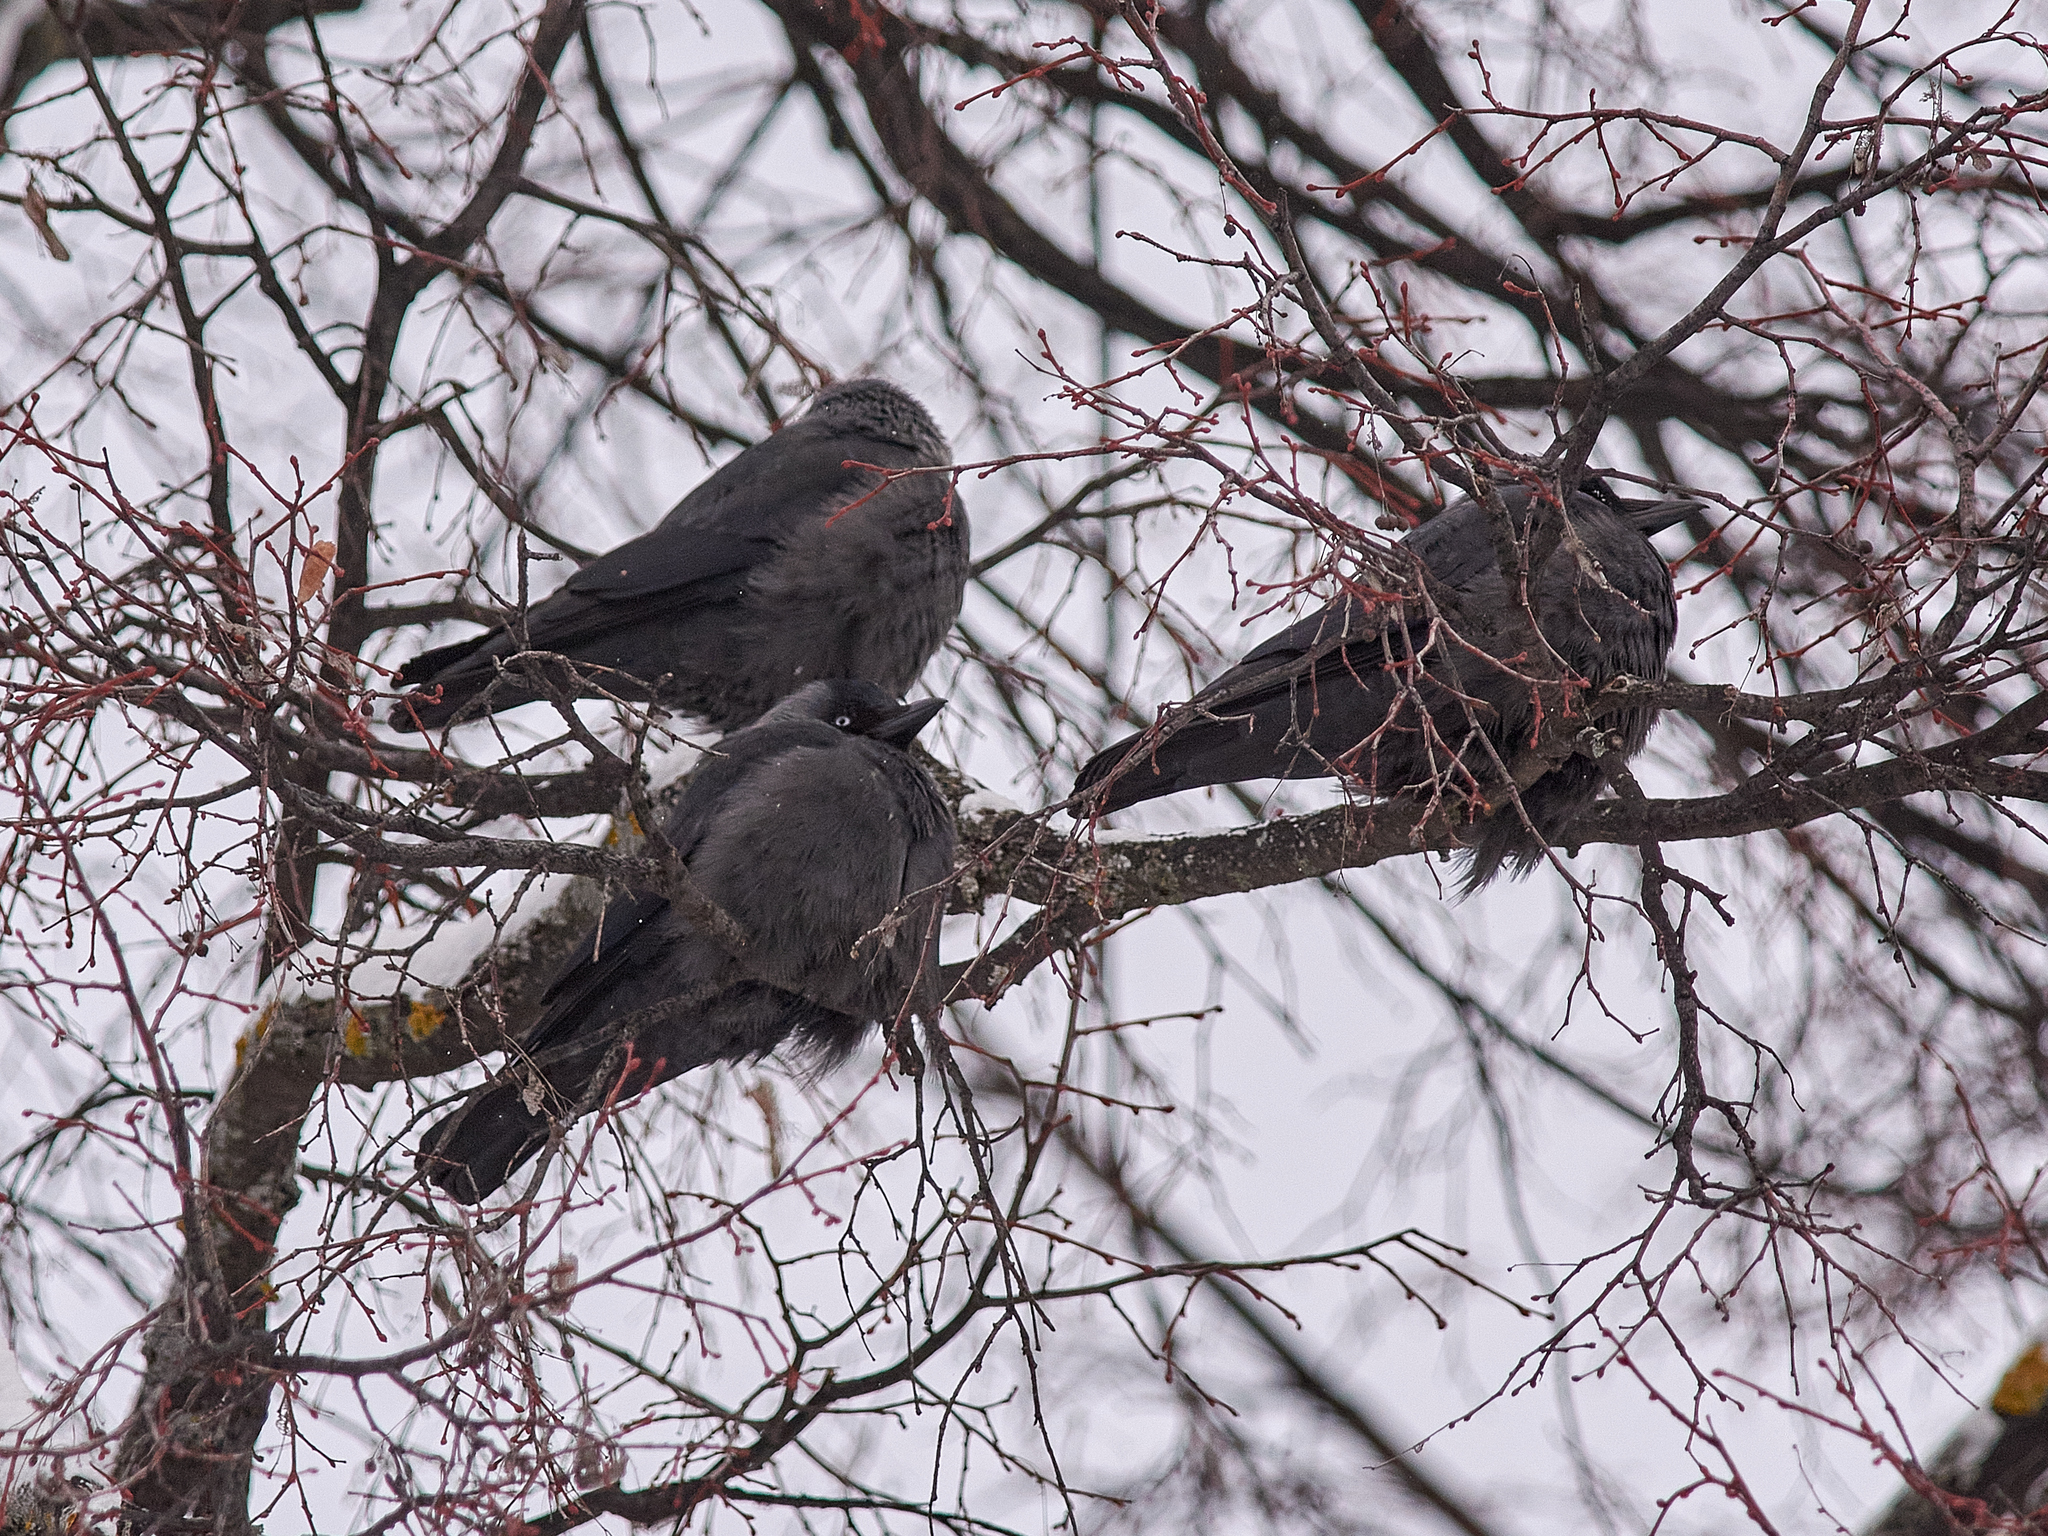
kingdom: Animalia
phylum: Chordata
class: Aves
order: Passeriformes
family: Corvidae
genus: Coloeus
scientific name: Coloeus monedula
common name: Western jackdaw
